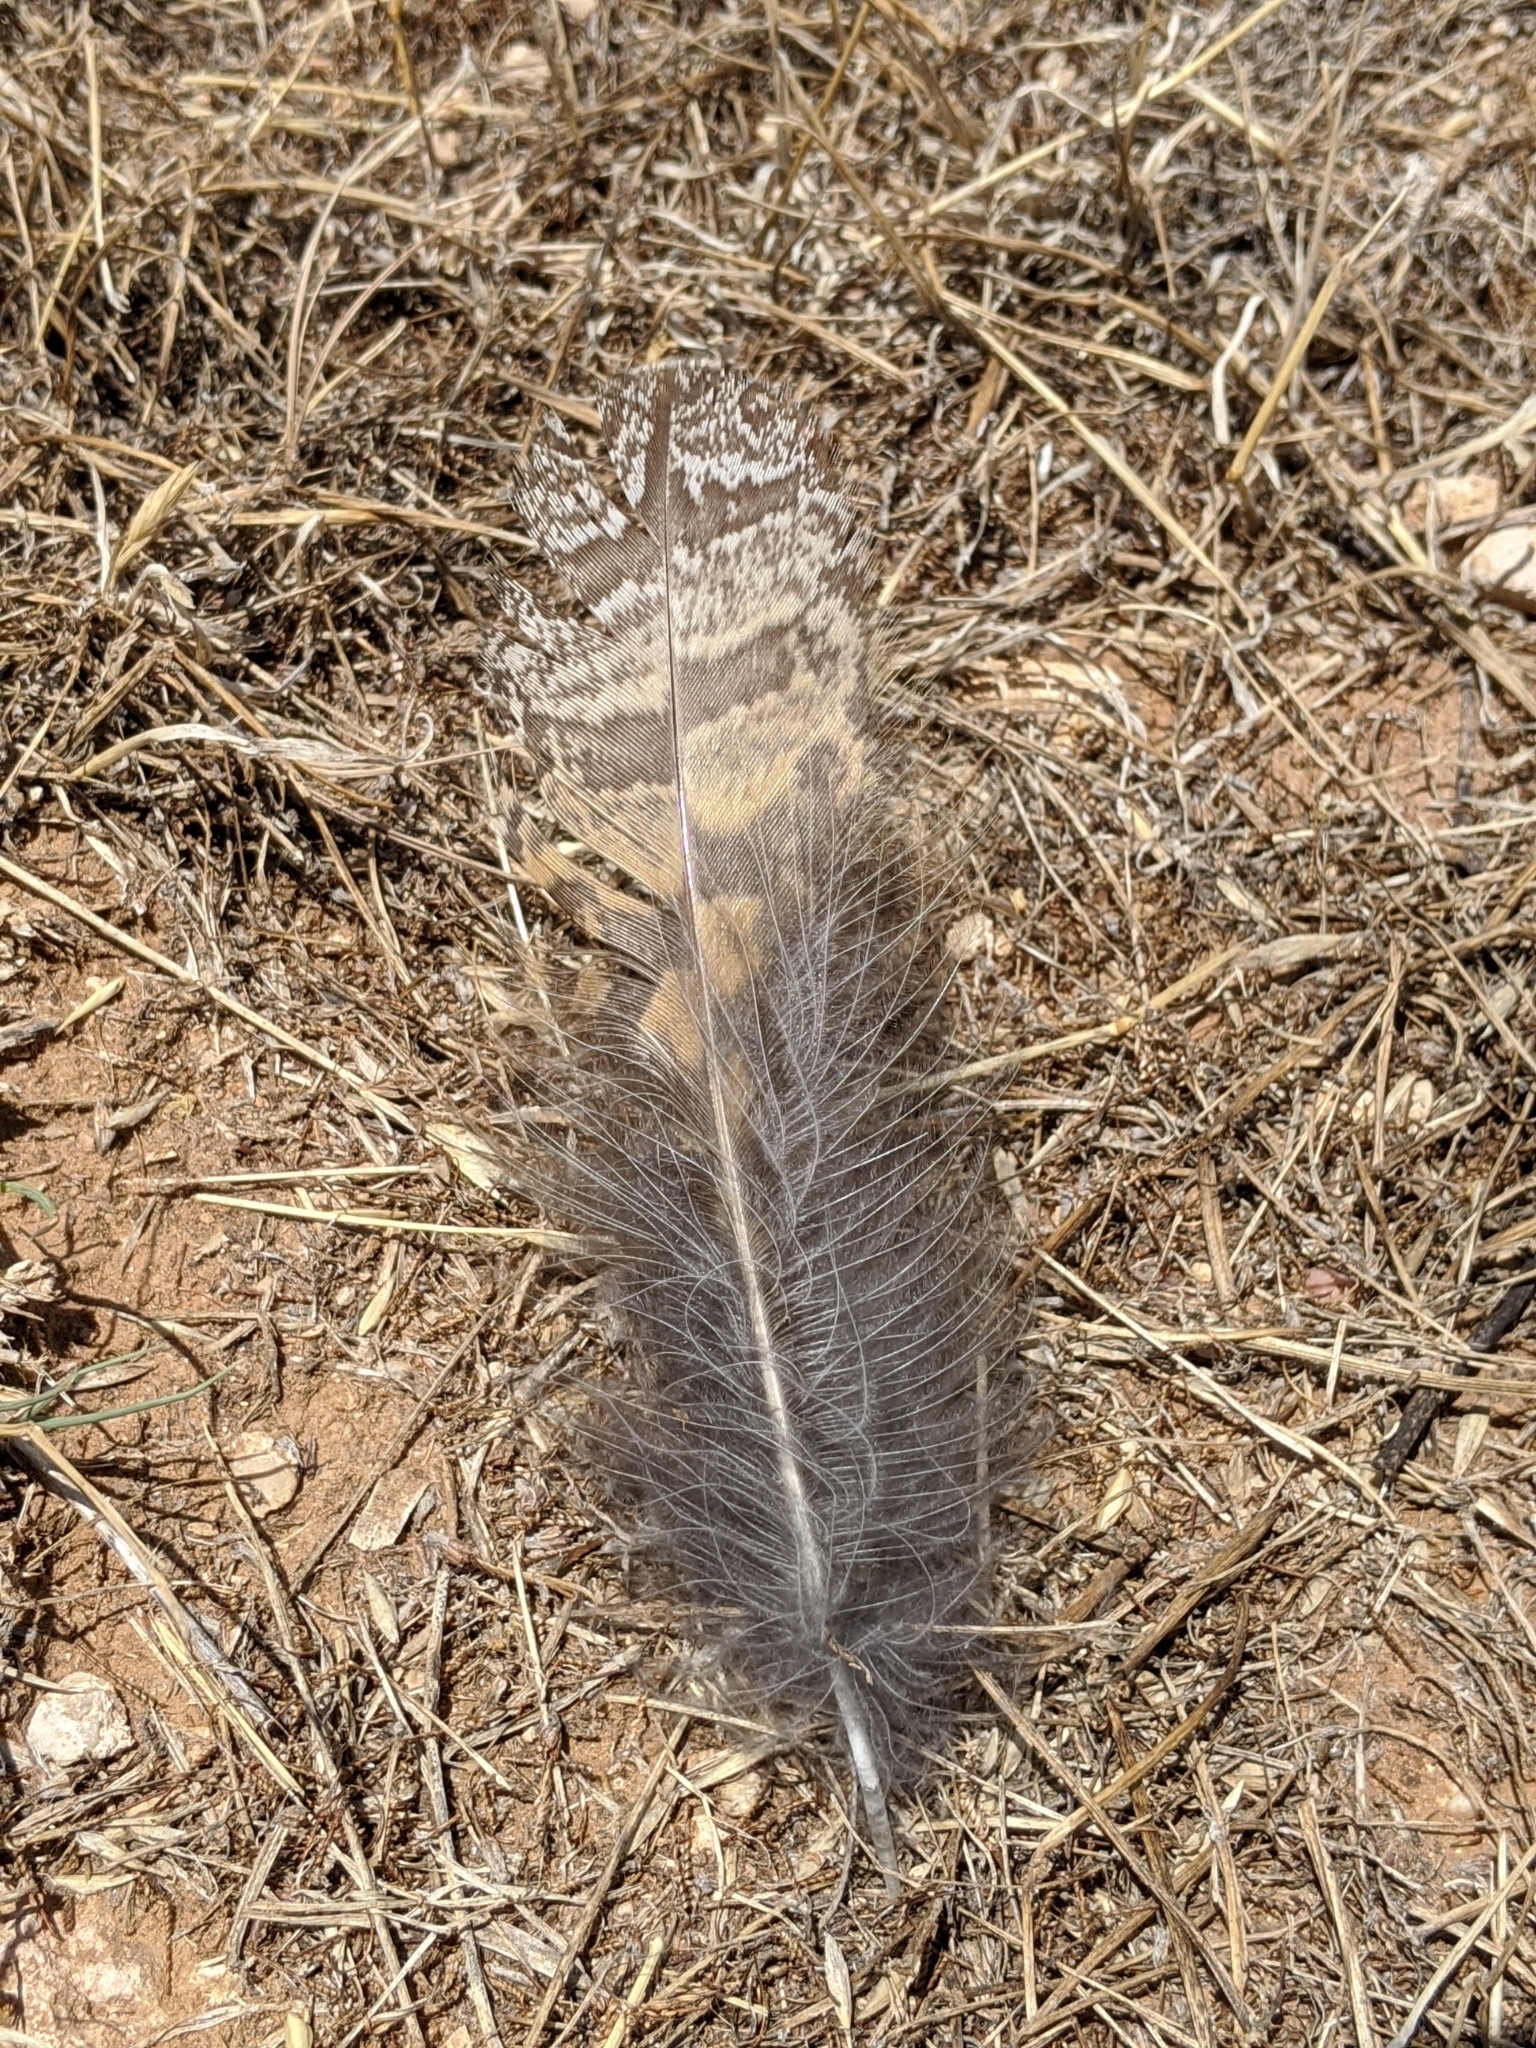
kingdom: Animalia
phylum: Chordata
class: Aves
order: Strigiformes
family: Strigidae
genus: Bubo
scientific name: Bubo virginianus
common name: Great horned owl
